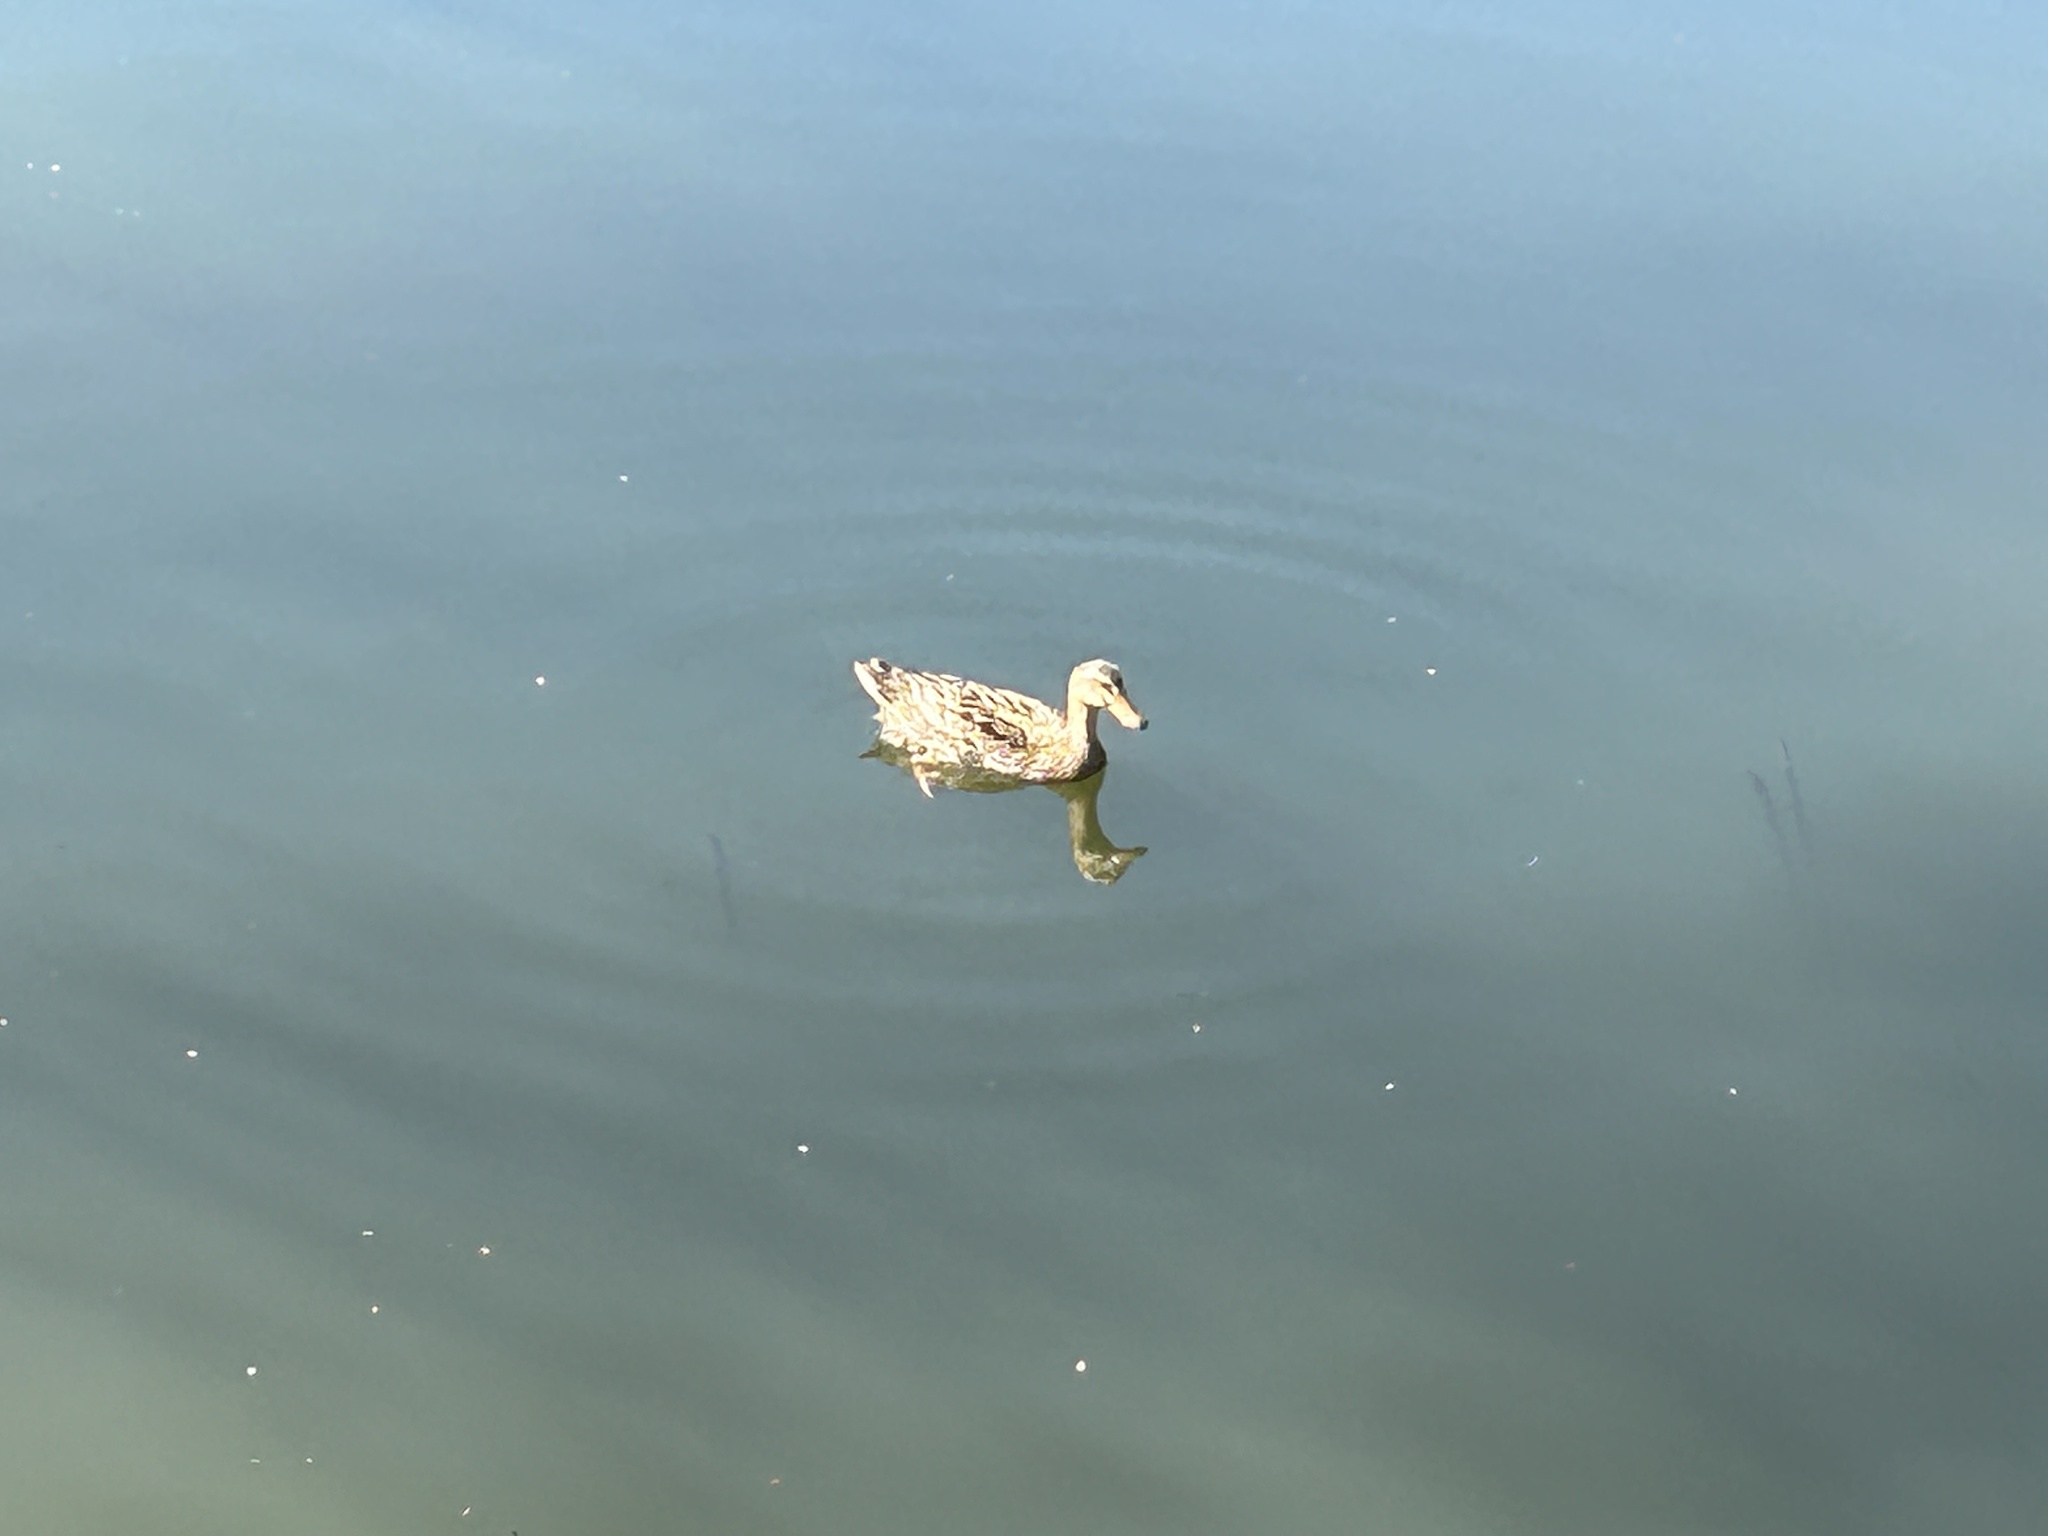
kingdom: Animalia
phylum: Chordata
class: Aves
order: Anseriformes
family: Anatidae
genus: Anas
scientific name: Anas platyrhynchos
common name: Mallard
